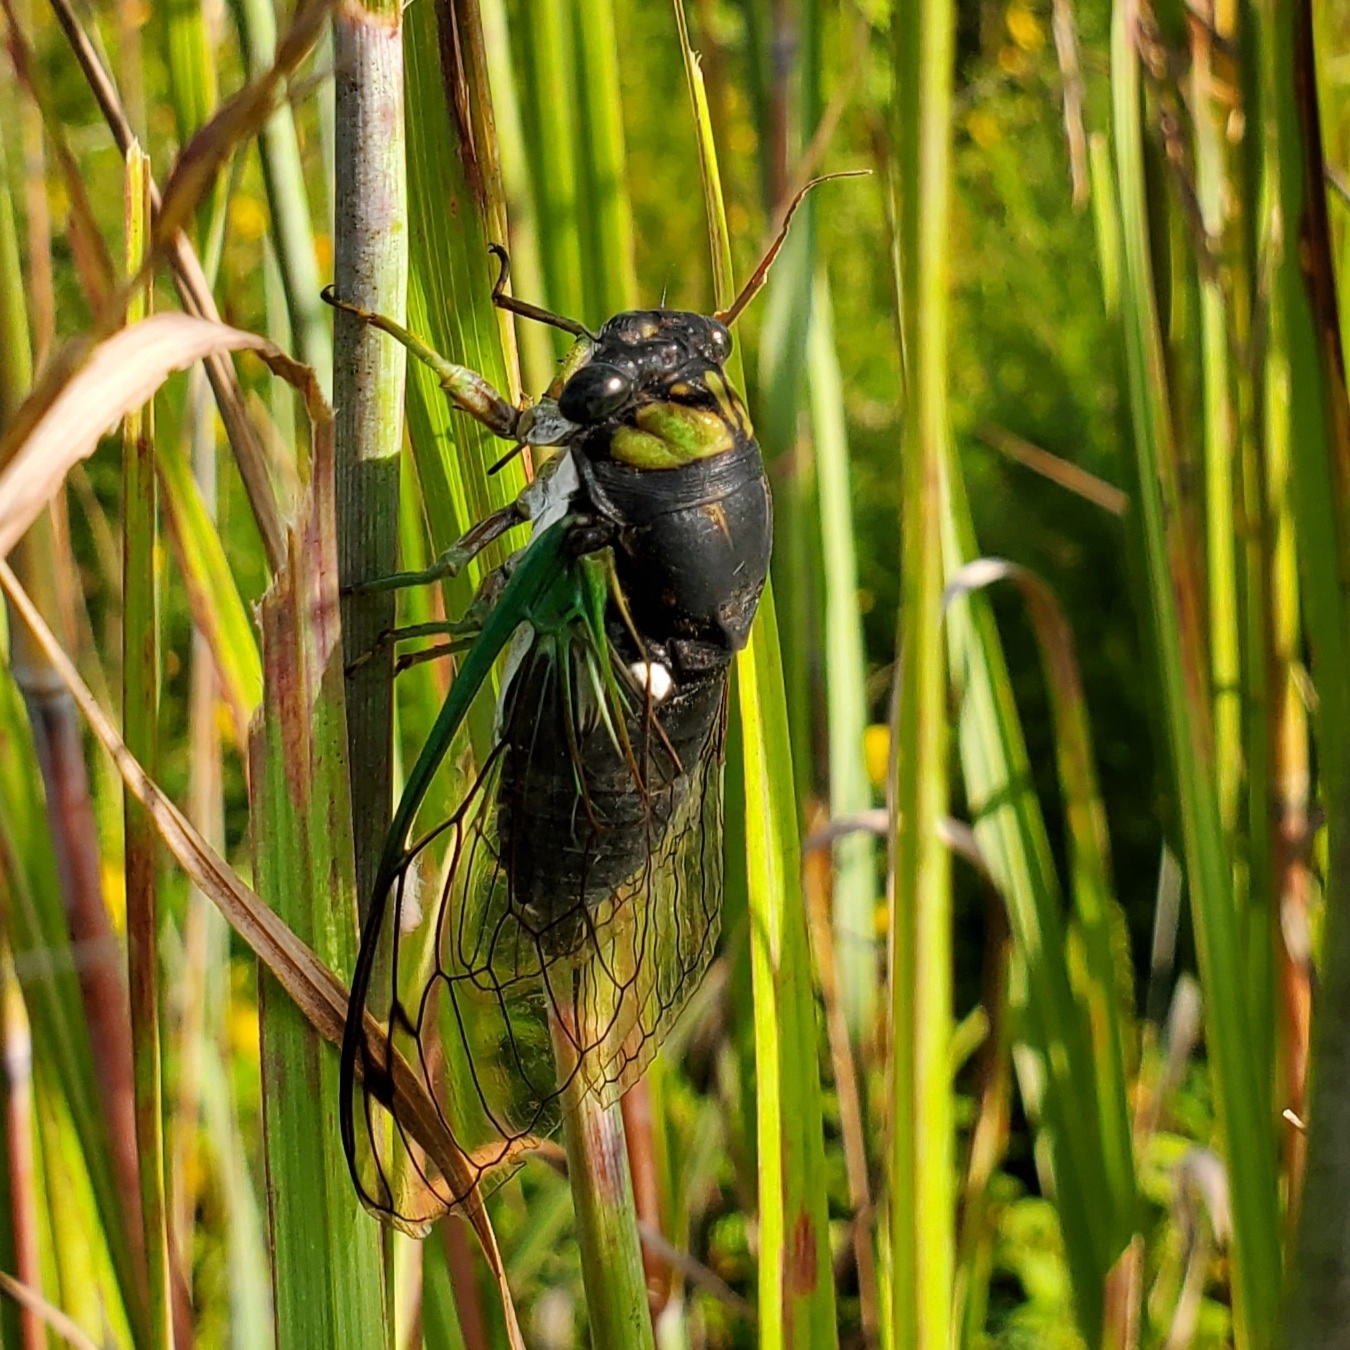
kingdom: Animalia
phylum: Arthropoda
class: Insecta
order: Hemiptera
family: Cicadidae
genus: Neotibicen
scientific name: Neotibicen tibicen
